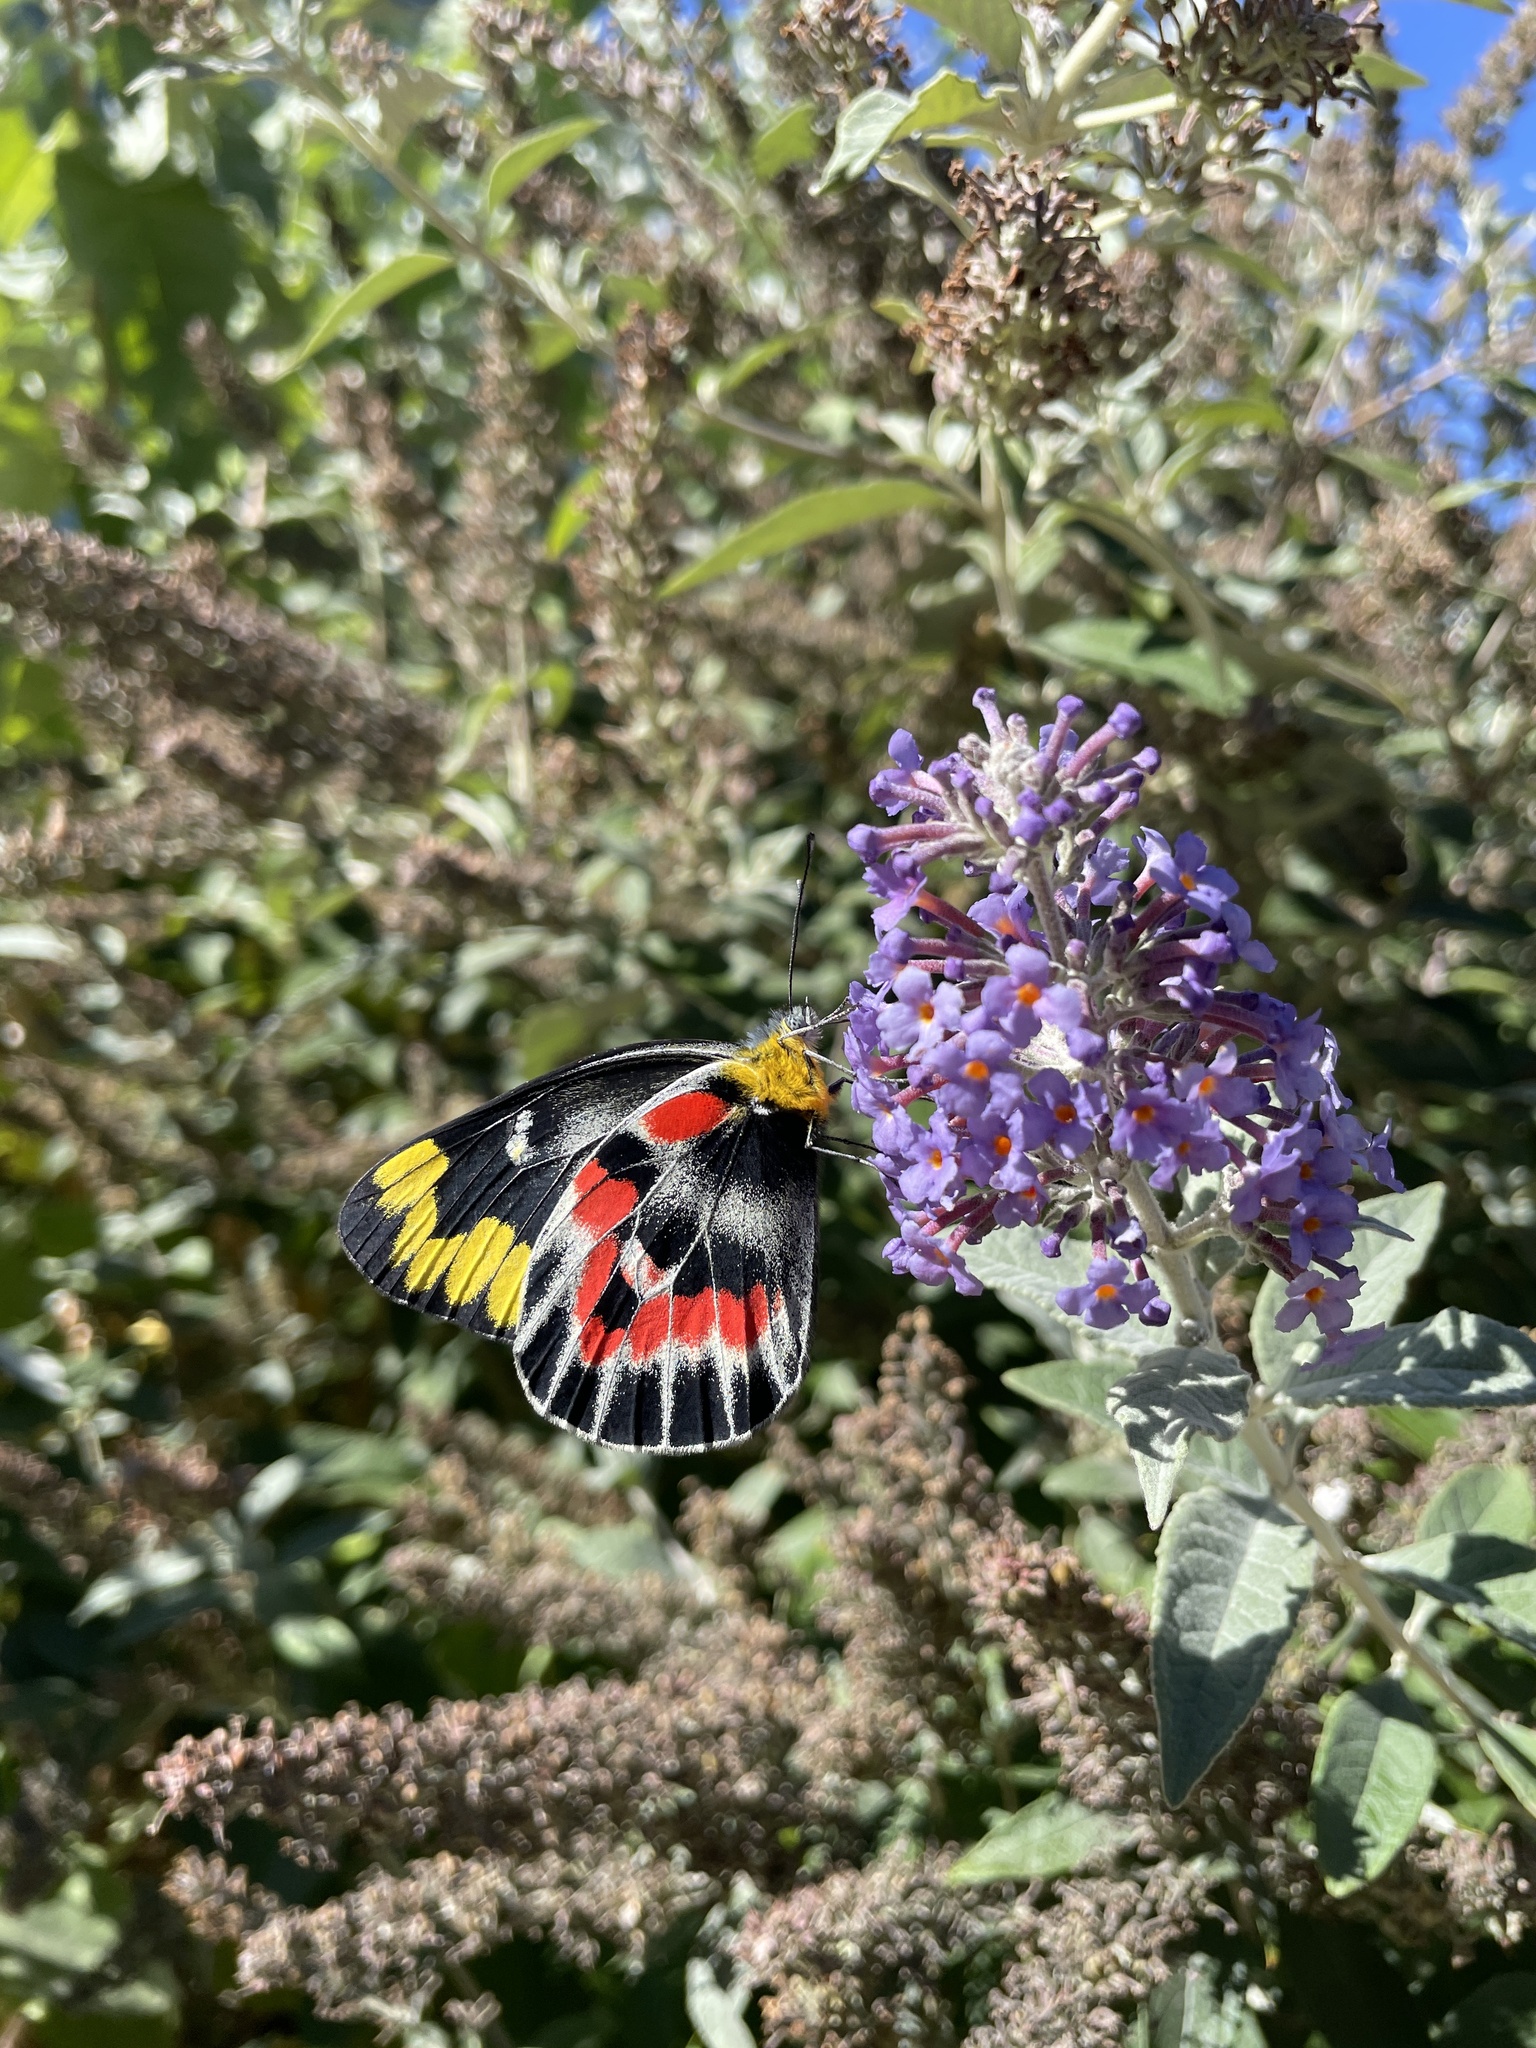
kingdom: Animalia
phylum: Arthropoda
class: Insecta
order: Lepidoptera
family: Pieridae
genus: Delias
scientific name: Delias harpalyce
